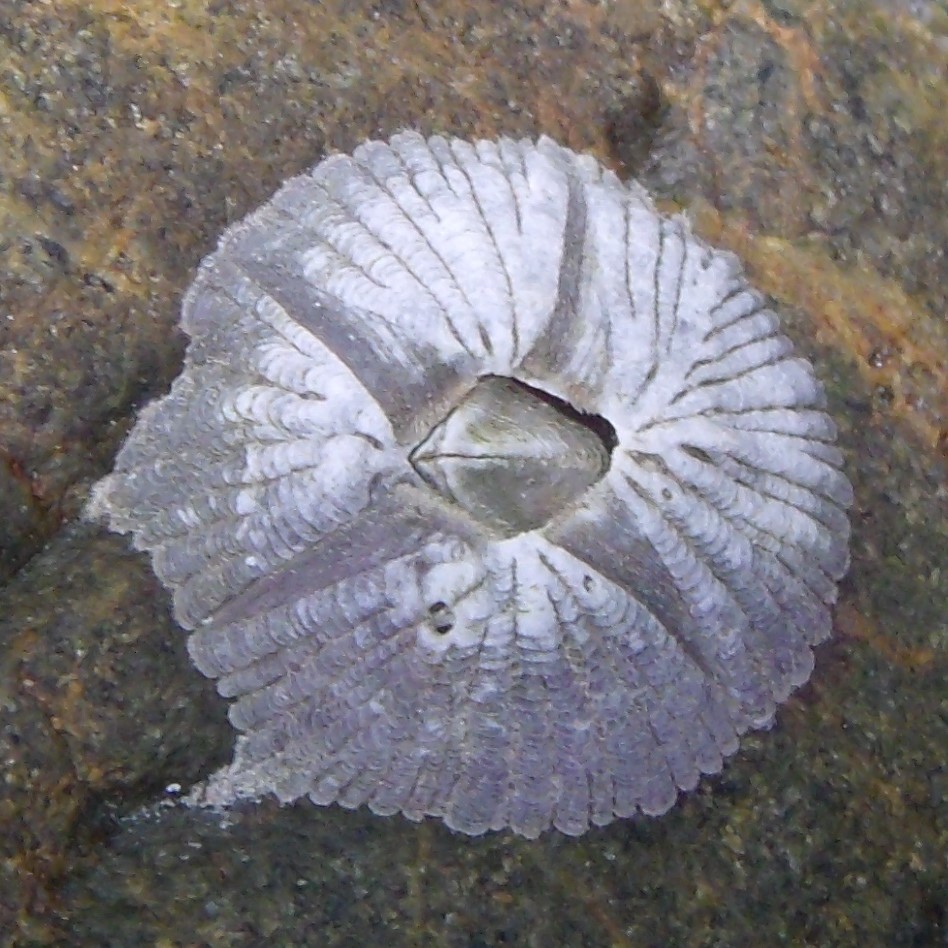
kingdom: Animalia
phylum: Arthropoda
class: Maxillopoda
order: Sessilia
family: Tetraclitidae
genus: Tetraclitella
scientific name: Tetraclitella depressa
